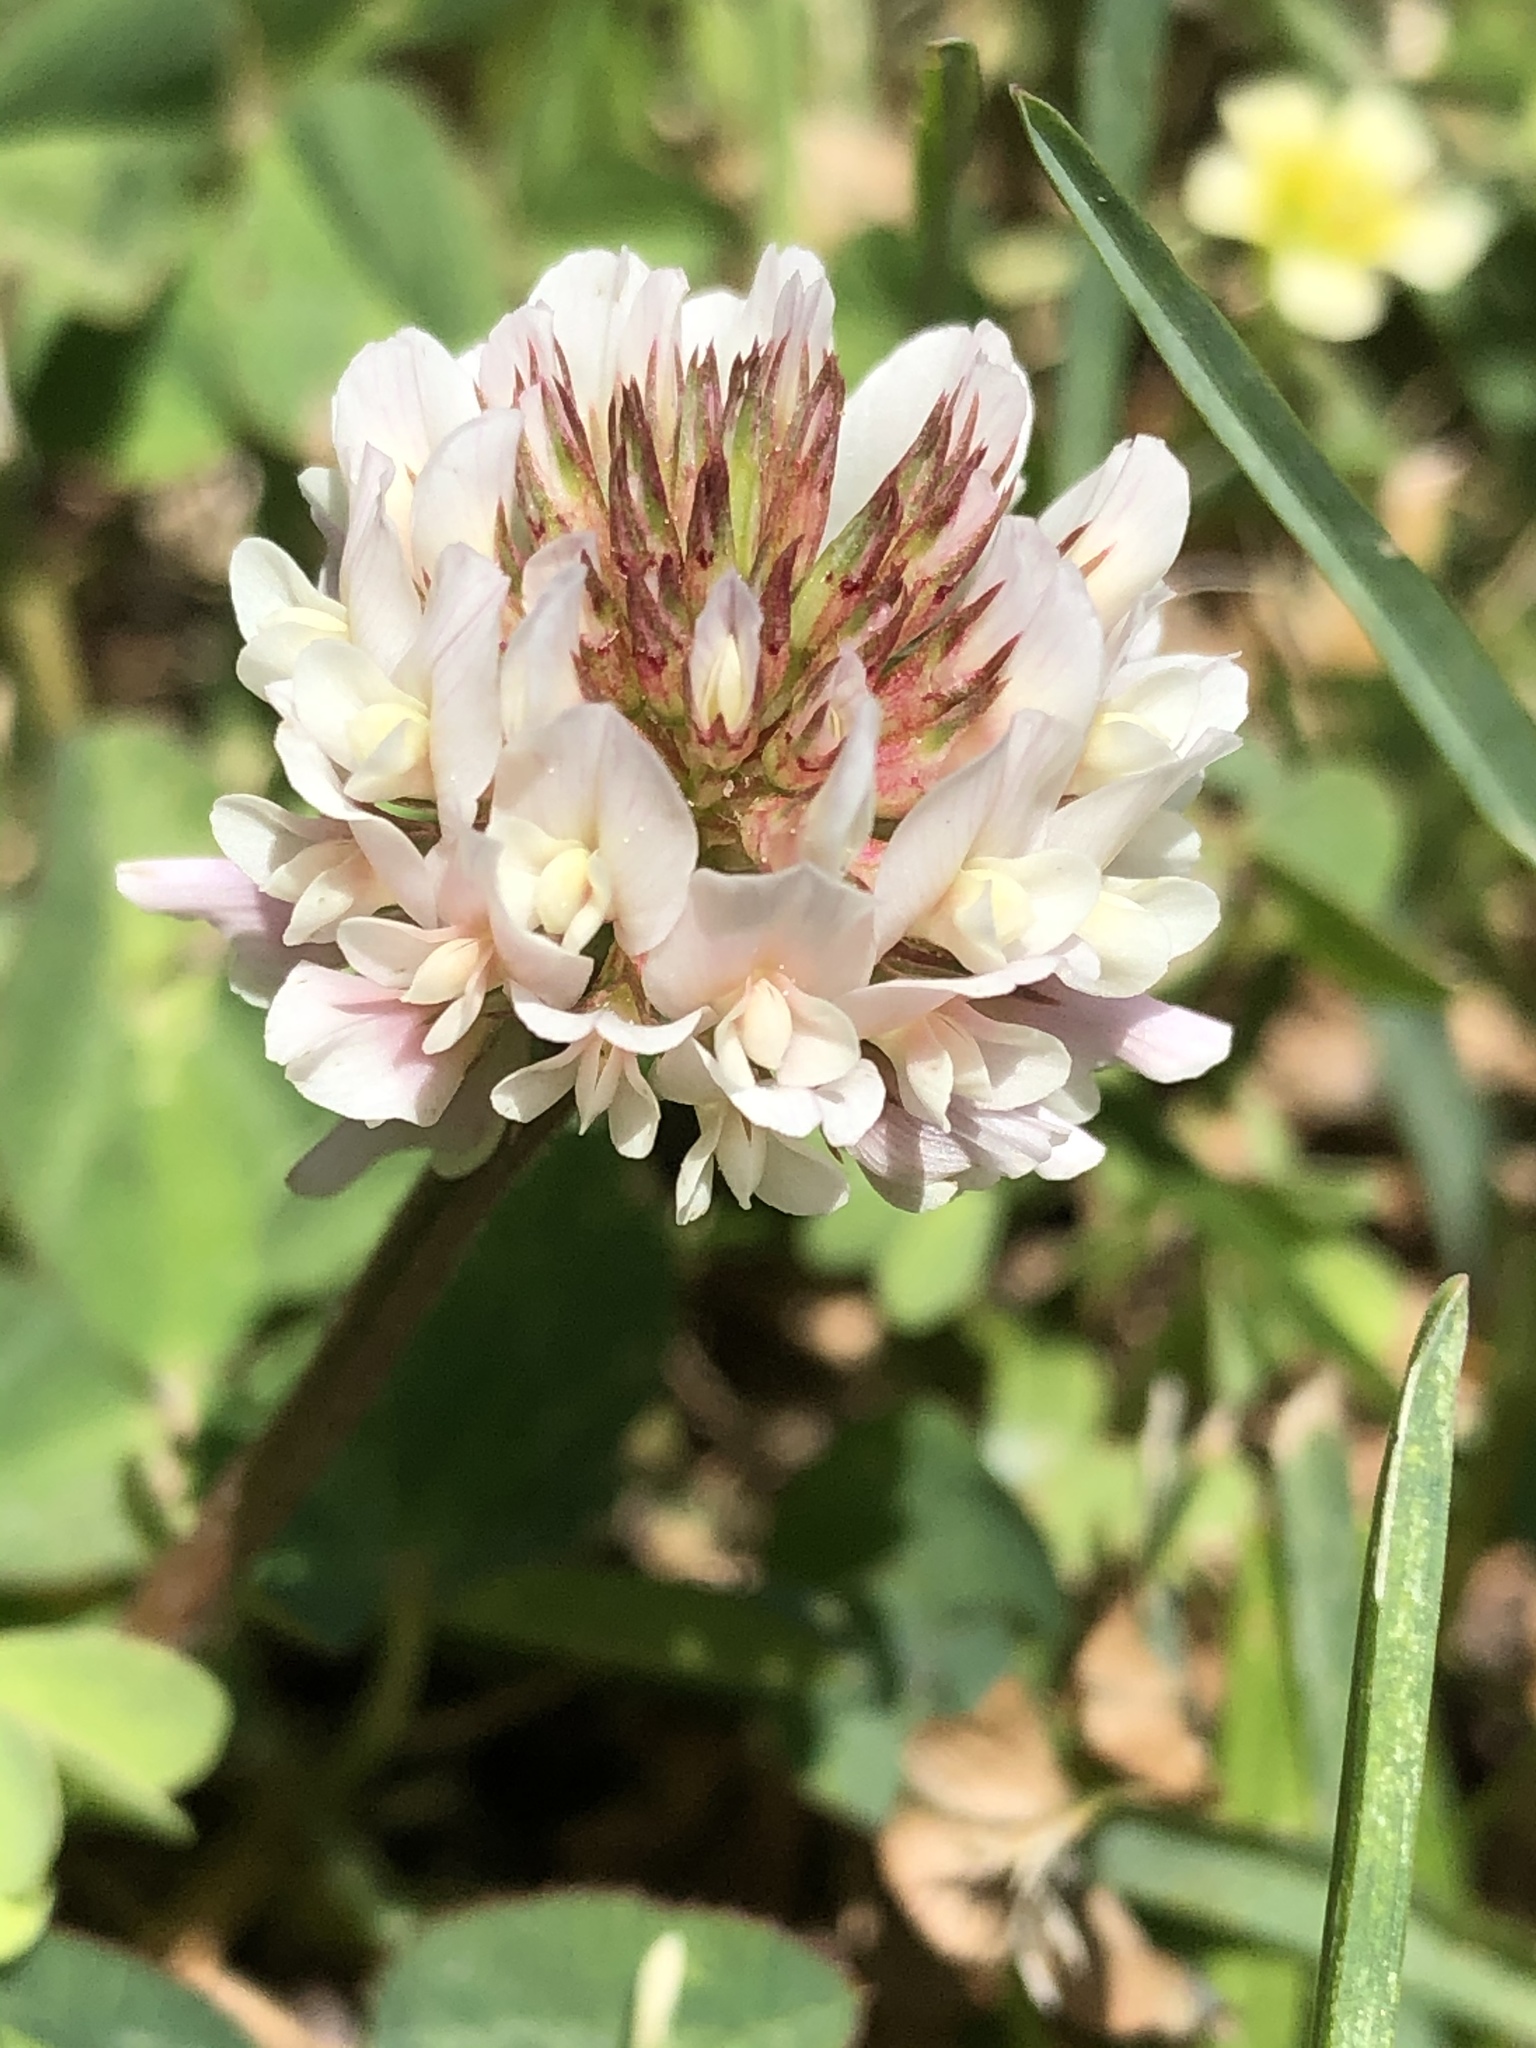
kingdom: Plantae
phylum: Tracheophyta
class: Magnoliopsida
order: Fabales
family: Fabaceae
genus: Trifolium
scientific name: Trifolium repens
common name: White clover
